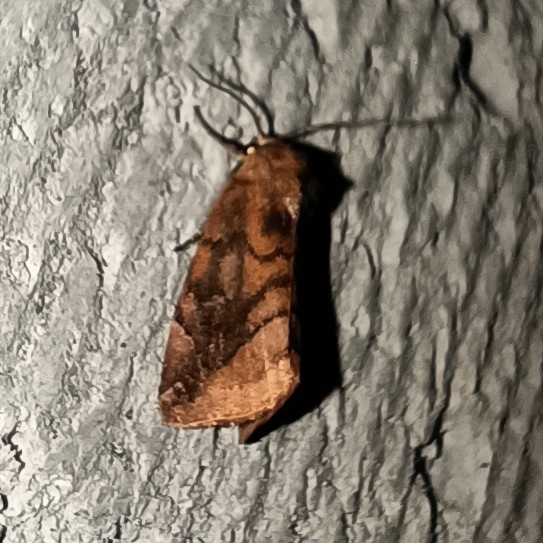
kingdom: Animalia
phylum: Arthropoda
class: Insecta
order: Lepidoptera
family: Noctuidae
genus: Cosmia
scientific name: Cosmia pyralina
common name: Lunar-spotted pinion
